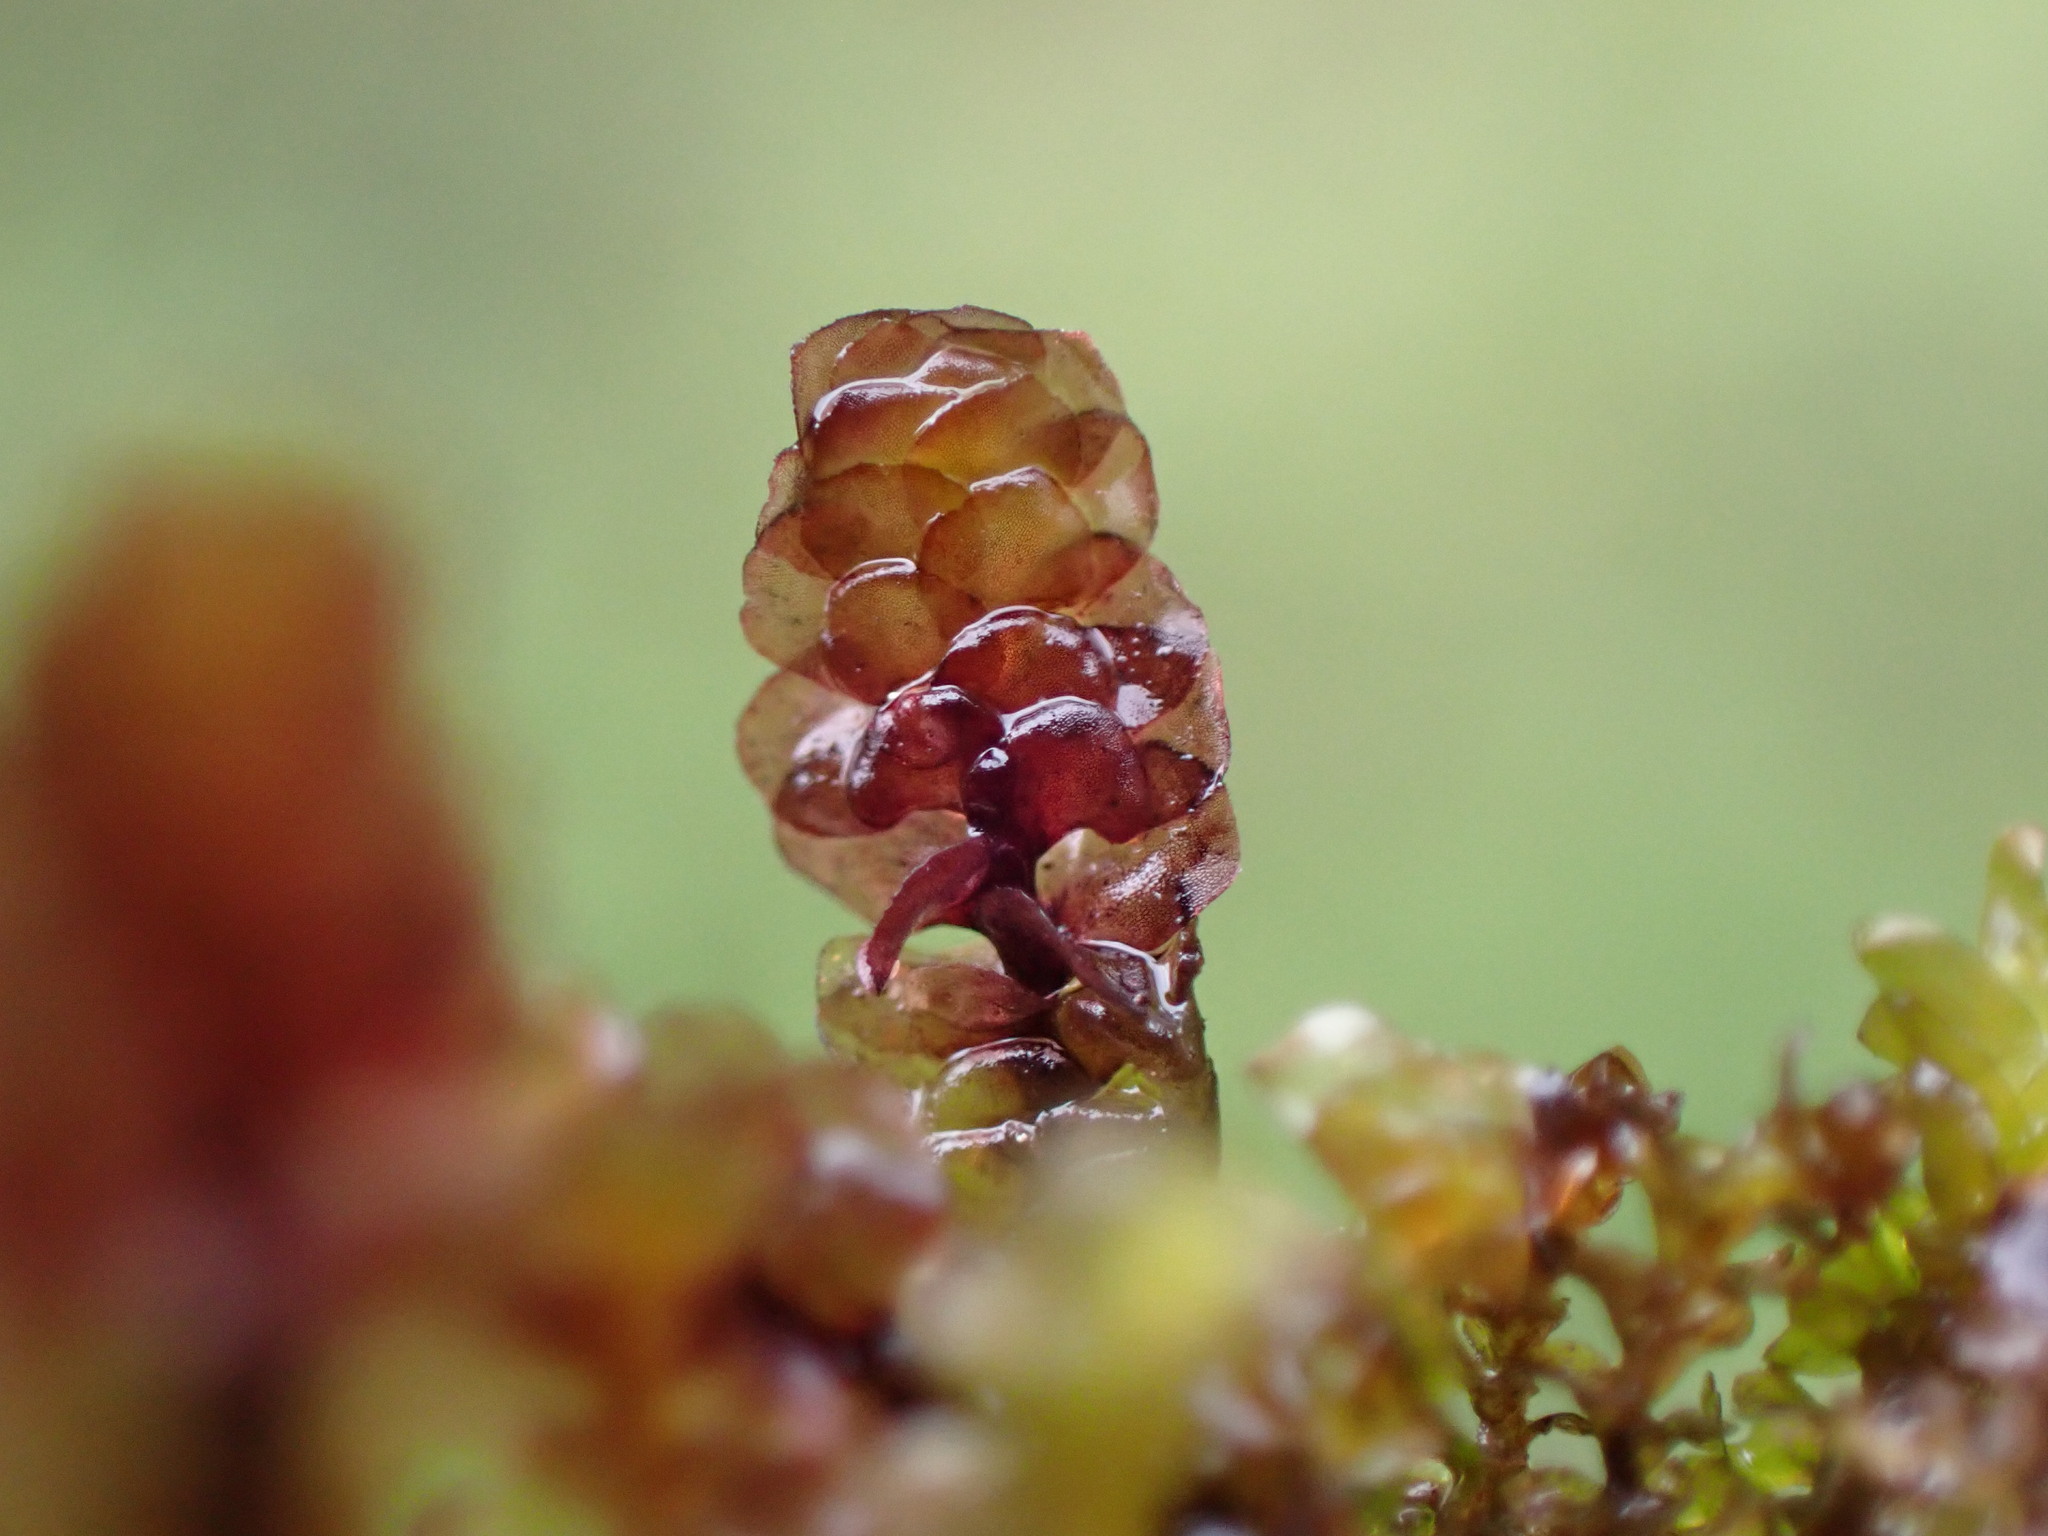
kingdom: Plantae
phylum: Marchantiophyta
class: Jungermanniopsida
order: Jungermanniales
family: Scapaniaceae
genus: Scapania
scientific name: Scapania undulata
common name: Water earwort
